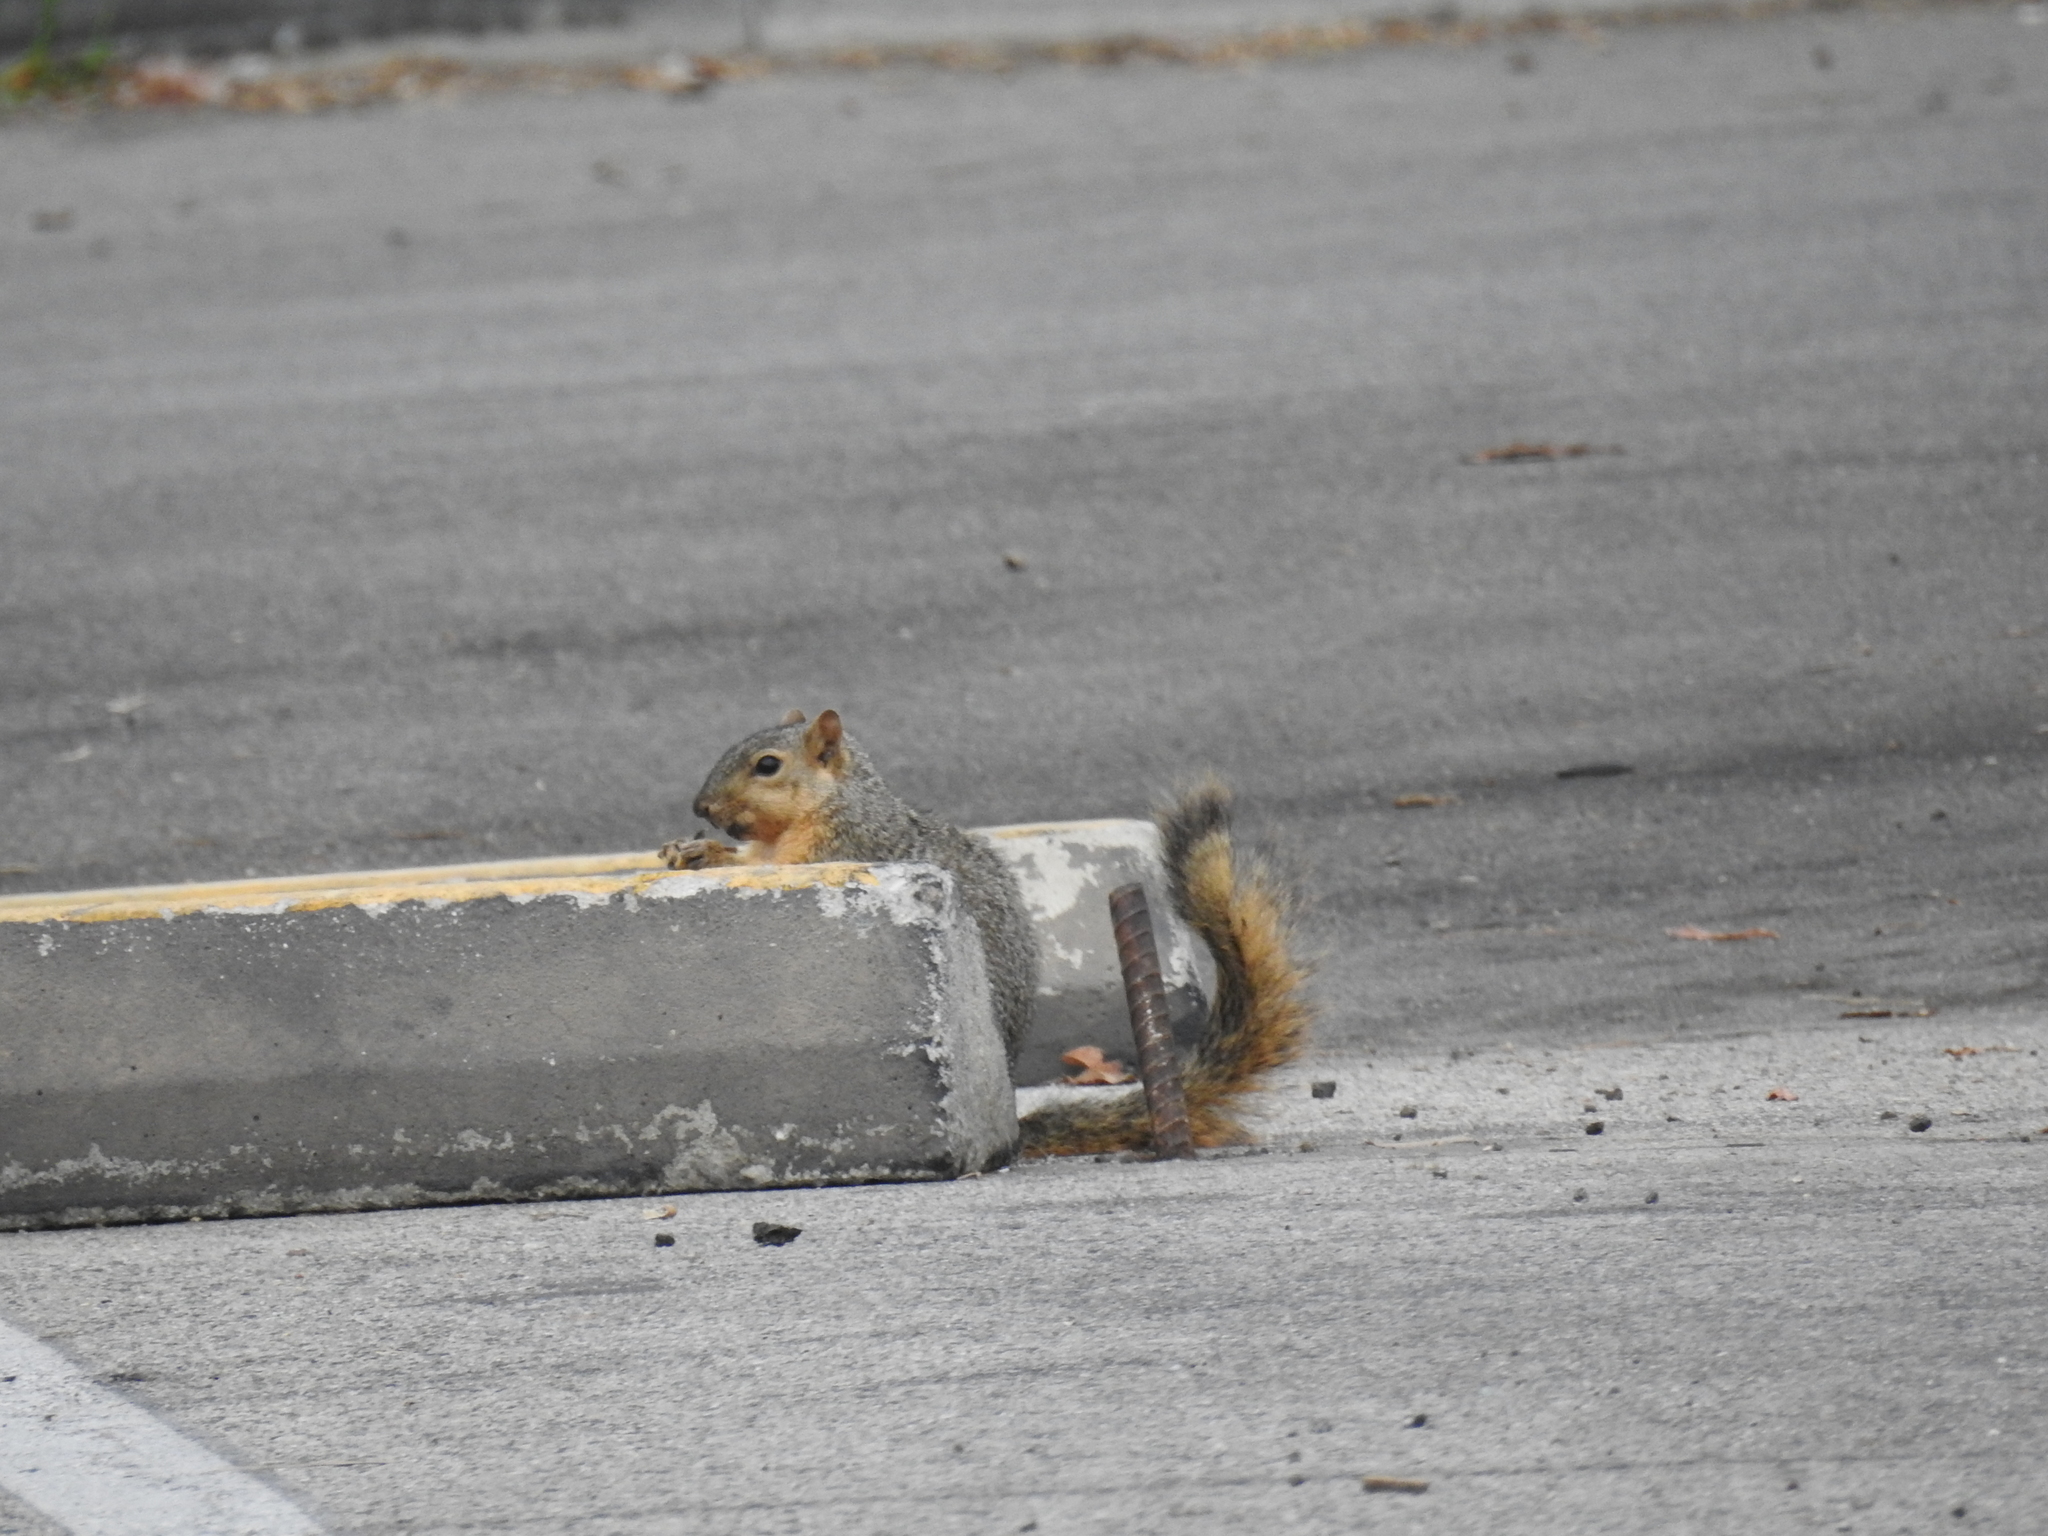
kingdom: Animalia
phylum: Chordata
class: Mammalia
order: Rodentia
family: Sciuridae
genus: Sciurus
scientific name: Sciurus niger
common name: Fox squirrel
